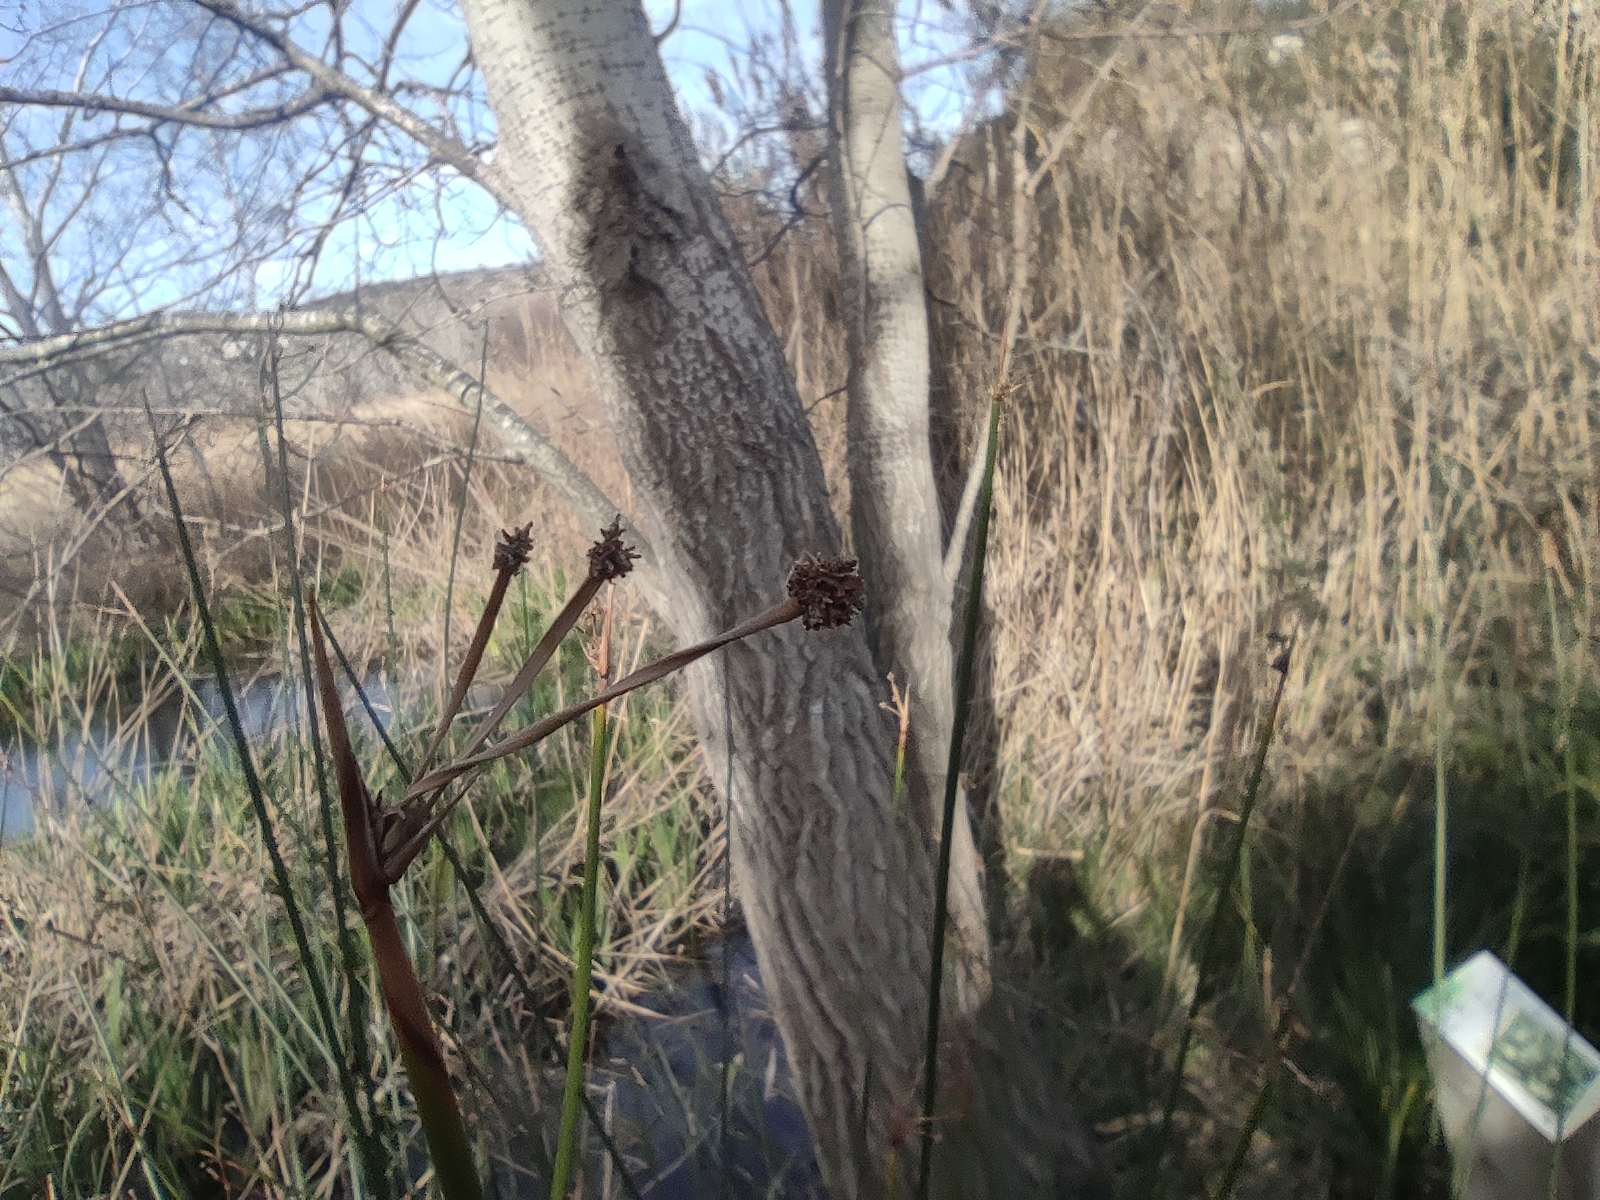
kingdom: Plantae
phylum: Tracheophyta
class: Liliopsida
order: Poales
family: Cyperaceae
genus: Scirpoides
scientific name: Scirpoides holoschoenus
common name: Round-headed club-rush
